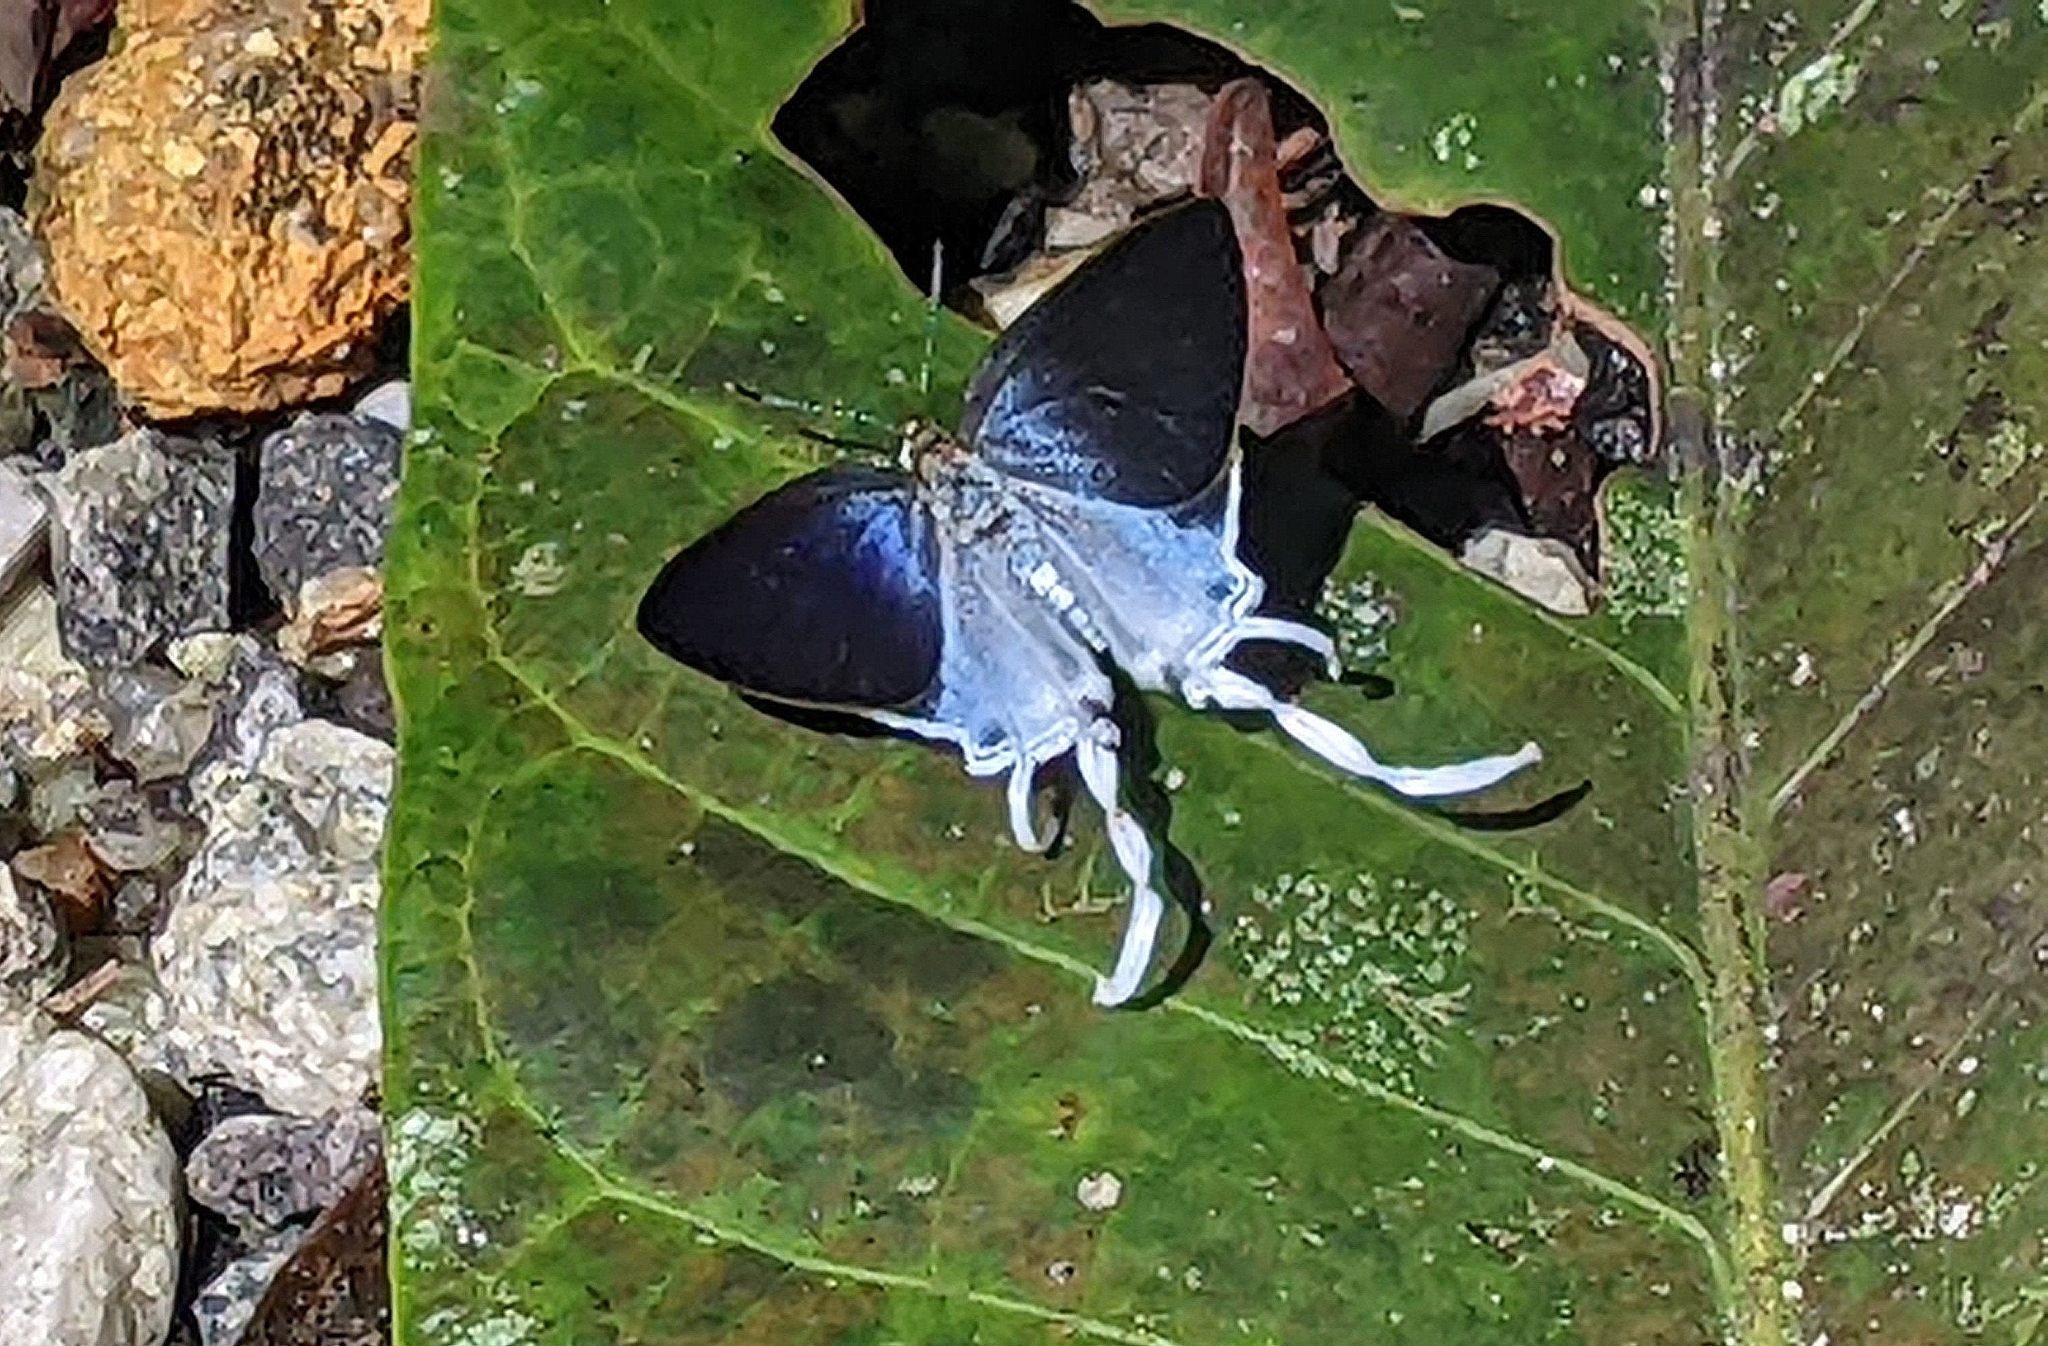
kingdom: Animalia
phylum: Arthropoda
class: Insecta
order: Lepidoptera
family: Lycaenidae
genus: Zeltus
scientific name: Zeltus amasa
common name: Fluffy tit
